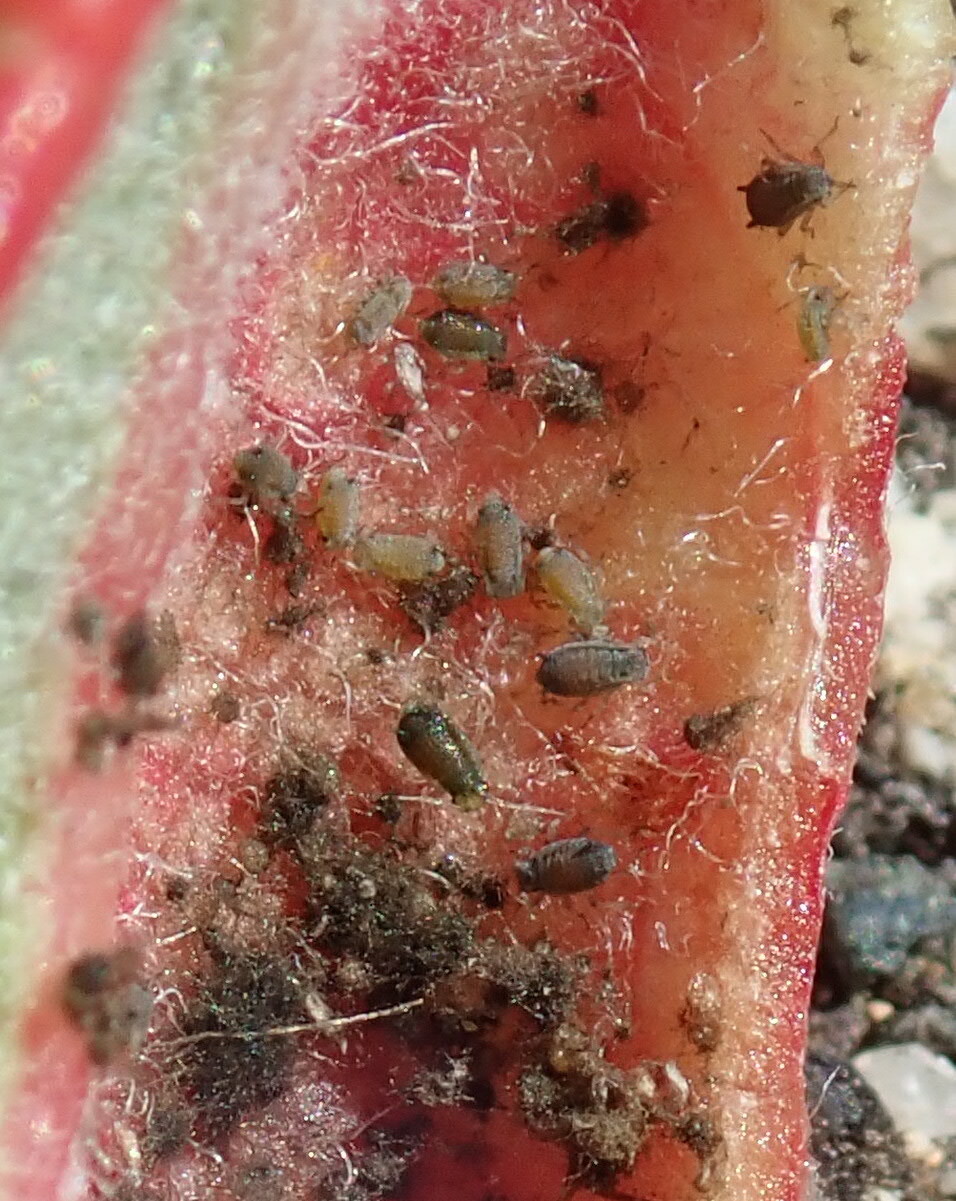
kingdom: Animalia
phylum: Arthropoda
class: Insecta
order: Hemiptera
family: Aphididae
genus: Tamalia
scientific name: Tamalia coweni
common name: Manzanita leafgall aphid
